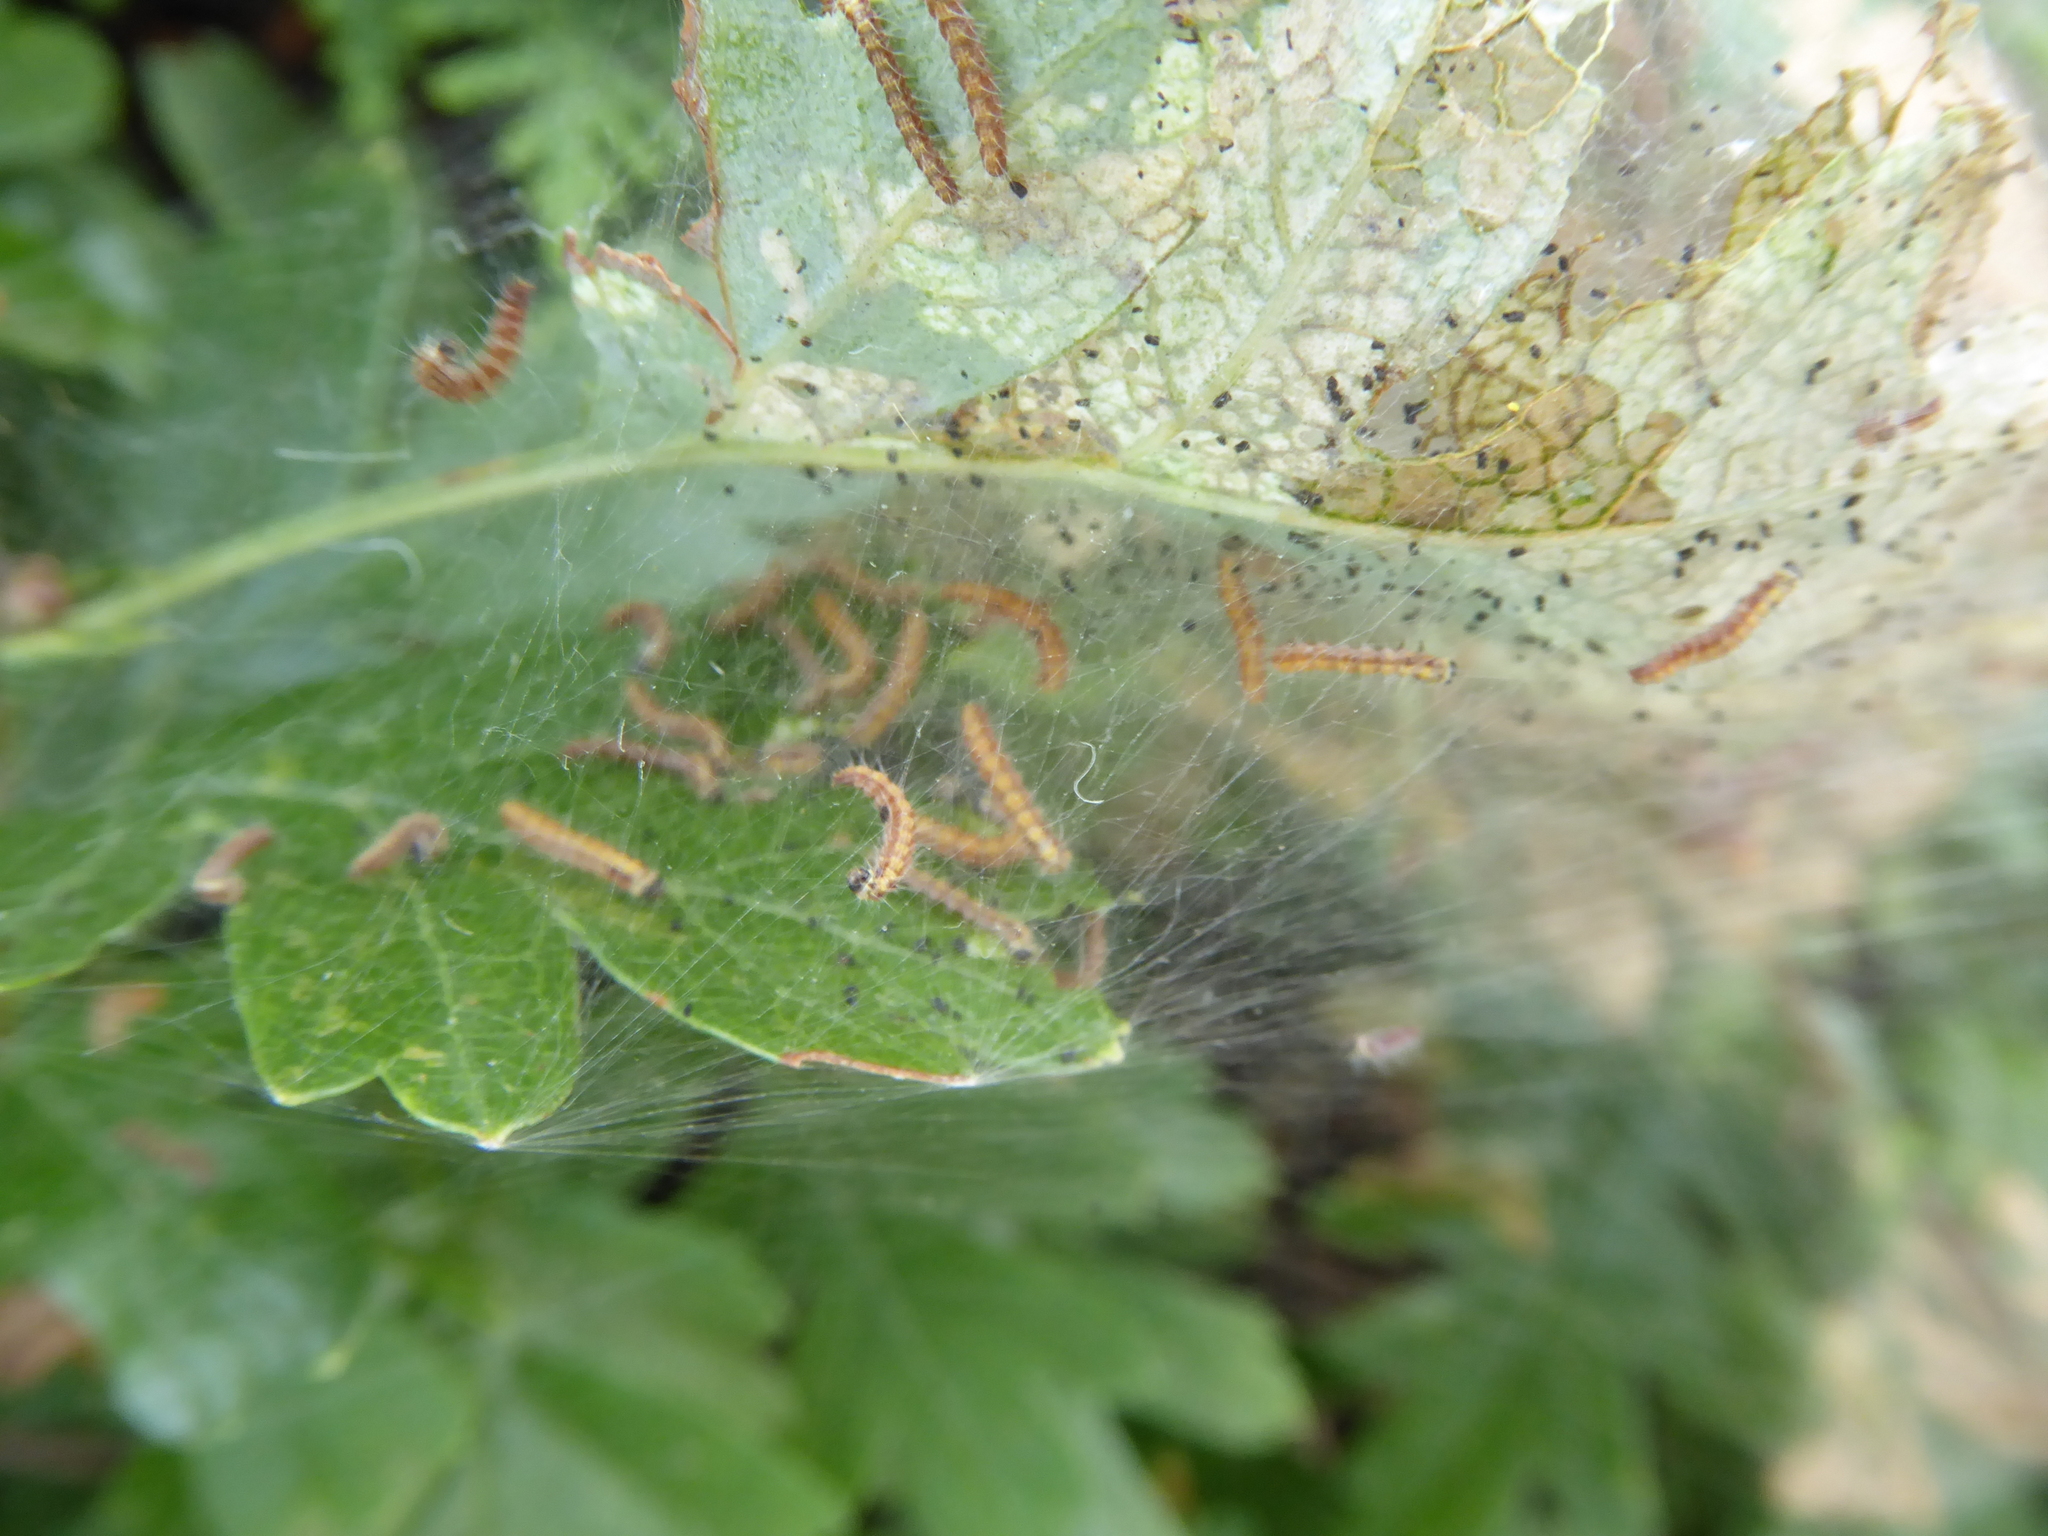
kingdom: Animalia
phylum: Arthropoda
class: Insecta
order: Lepidoptera
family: Yponomeutidae
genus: Scythropia
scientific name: Scythropia crataegella
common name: Hawthorn moth
